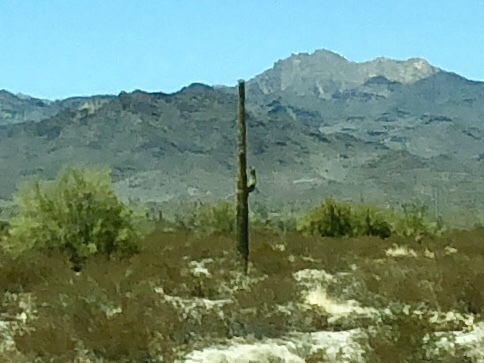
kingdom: Plantae
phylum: Tracheophyta
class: Magnoliopsida
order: Caryophyllales
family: Cactaceae
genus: Carnegiea
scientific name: Carnegiea gigantea
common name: Saguaro
